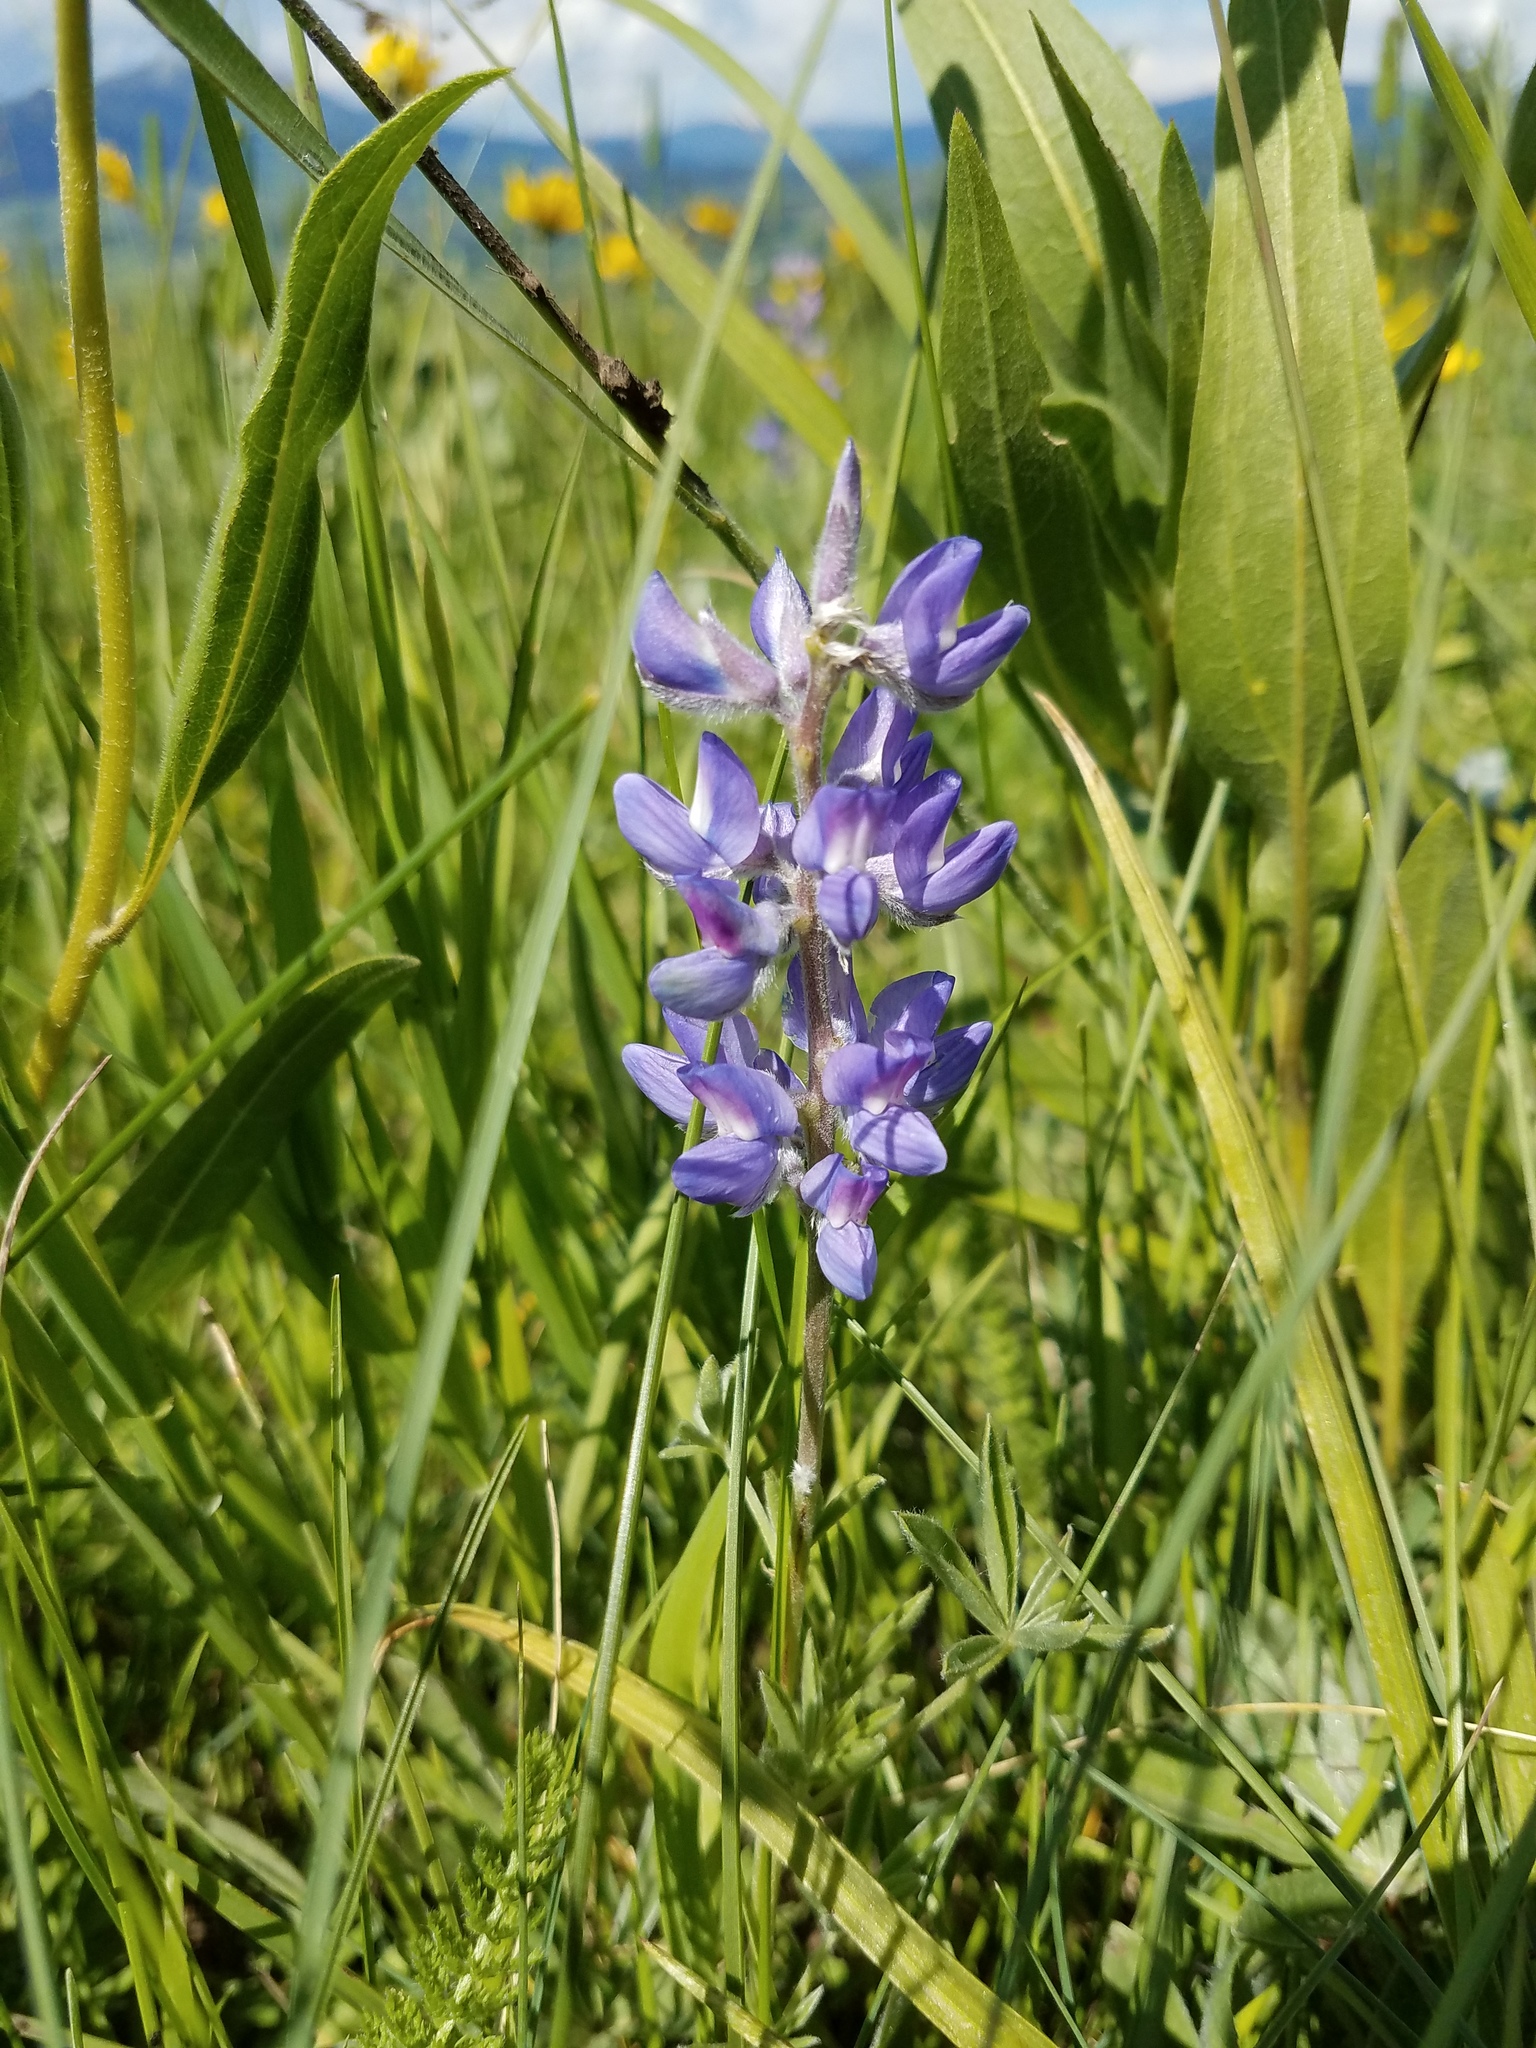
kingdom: Plantae
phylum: Tracheophyta
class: Magnoliopsida
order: Fabales
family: Fabaceae
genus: Lupinus
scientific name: Lupinus sericeus
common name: Silky lupine
